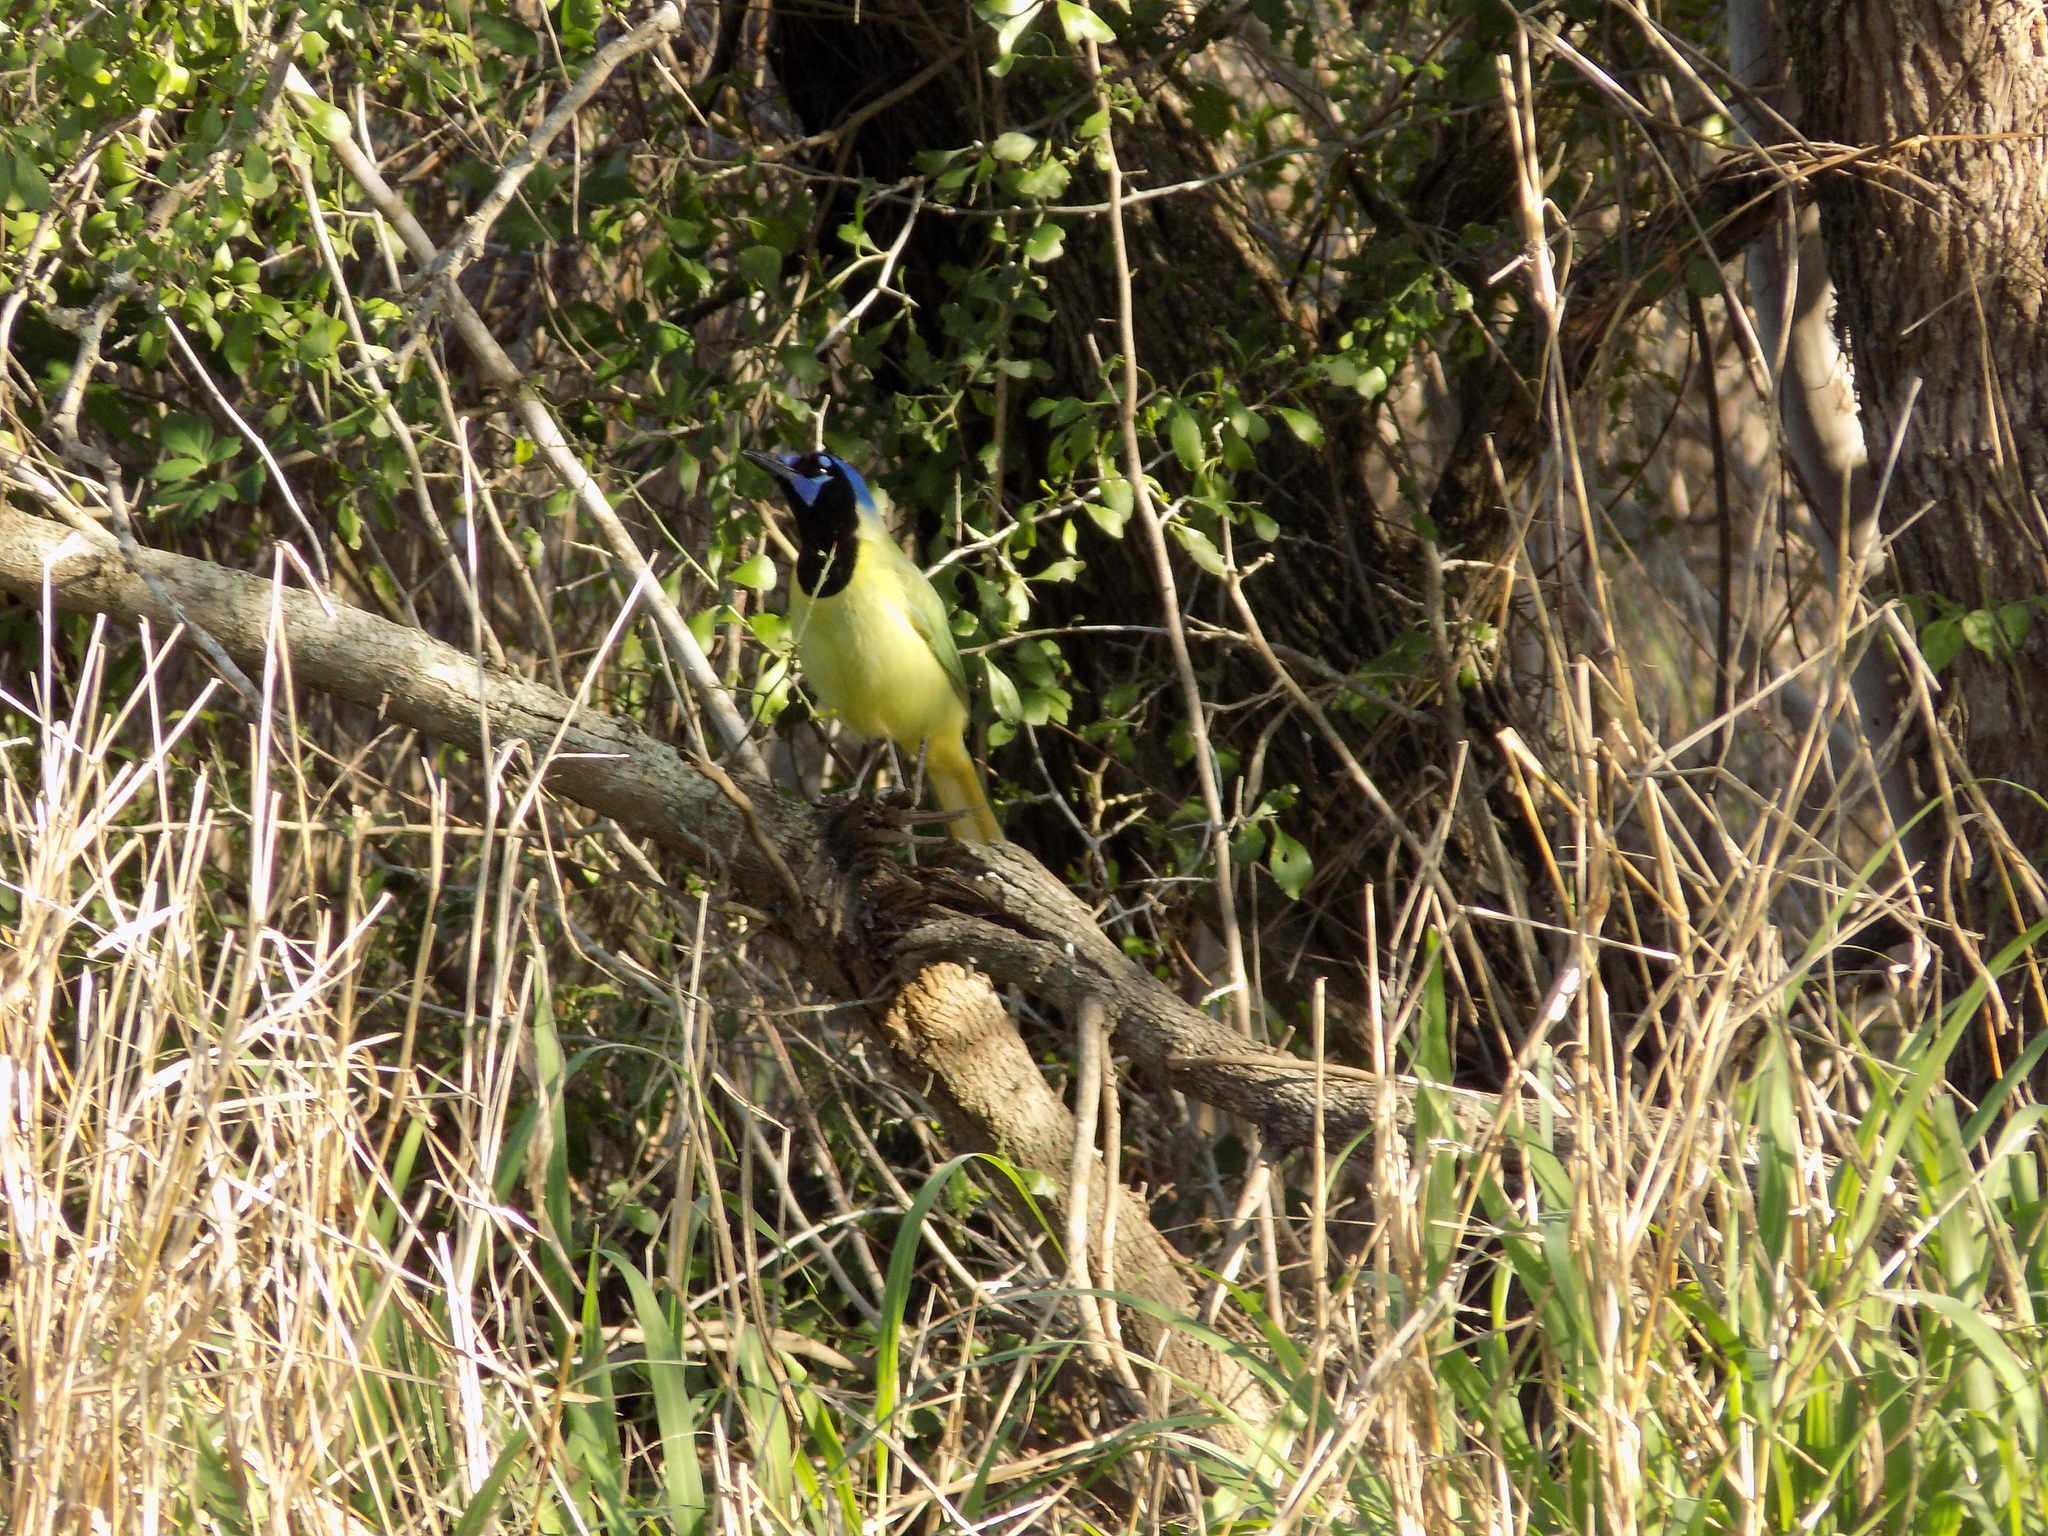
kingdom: Animalia
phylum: Chordata
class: Aves
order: Passeriformes
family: Corvidae
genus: Cyanocorax
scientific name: Cyanocorax yncas
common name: Green jay
